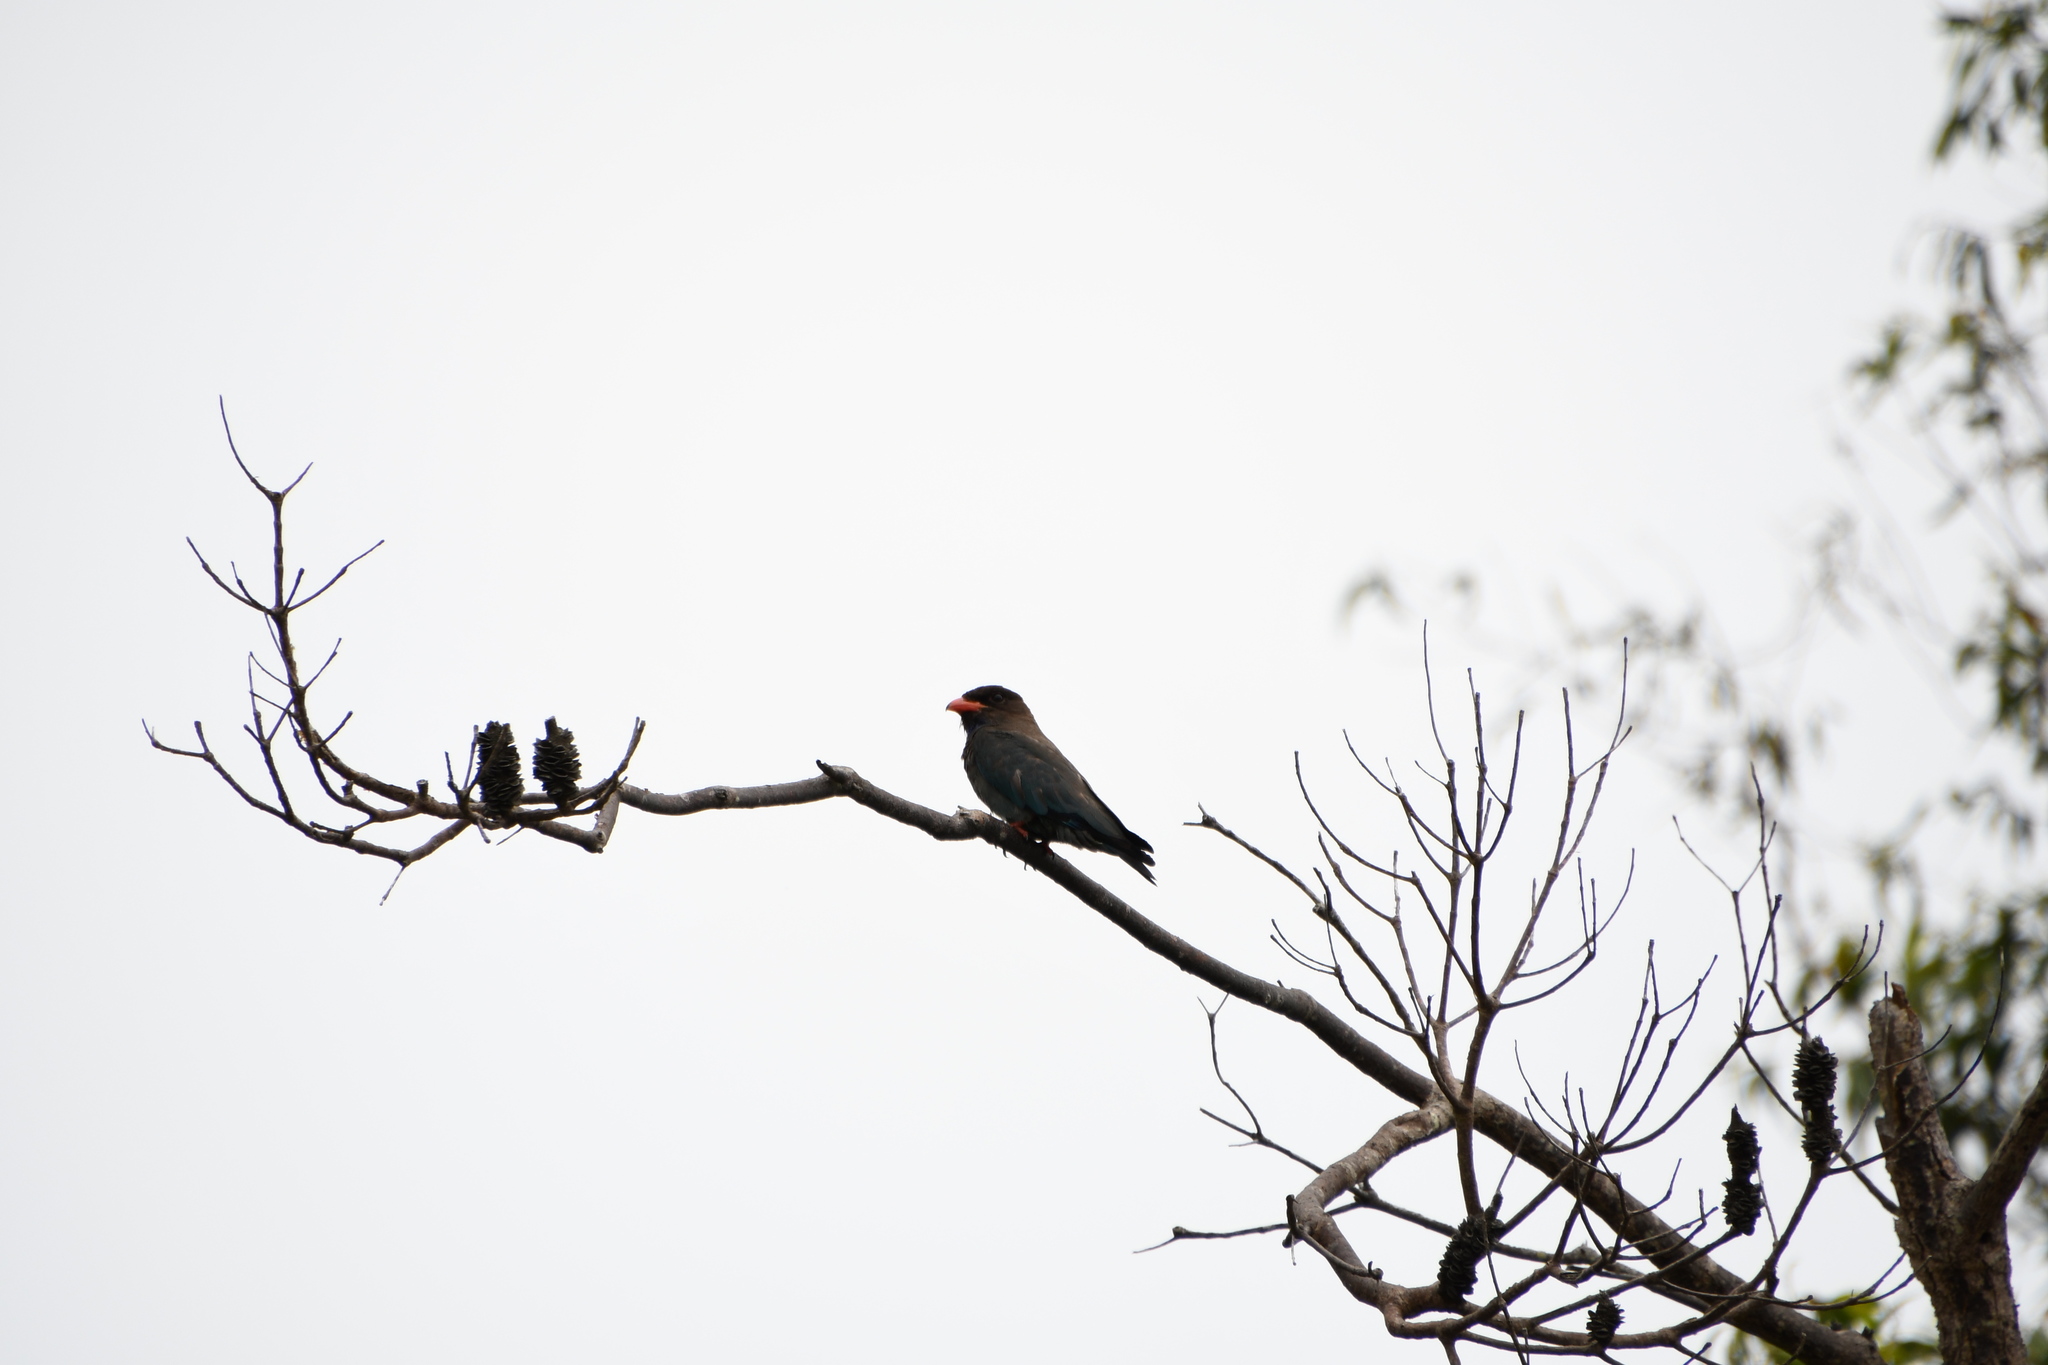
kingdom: Animalia
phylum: Chordata
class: Aves
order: Coraciiformes
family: Coraciidae
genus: Eurystomus
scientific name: Eurystomus orientalis
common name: Oriental dollarbird
